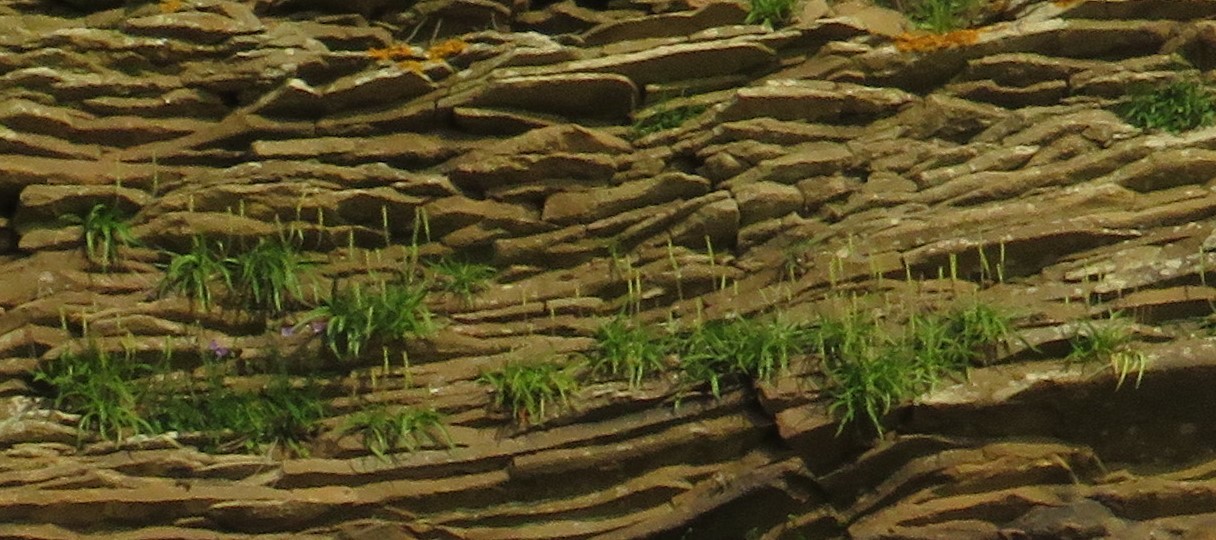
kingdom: Plantae
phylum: Tracheophyta
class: Magnoliopsida
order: Lamiales
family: Plantaginaceae
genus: Plantago
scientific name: Plantago maritima
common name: Sea plantain
